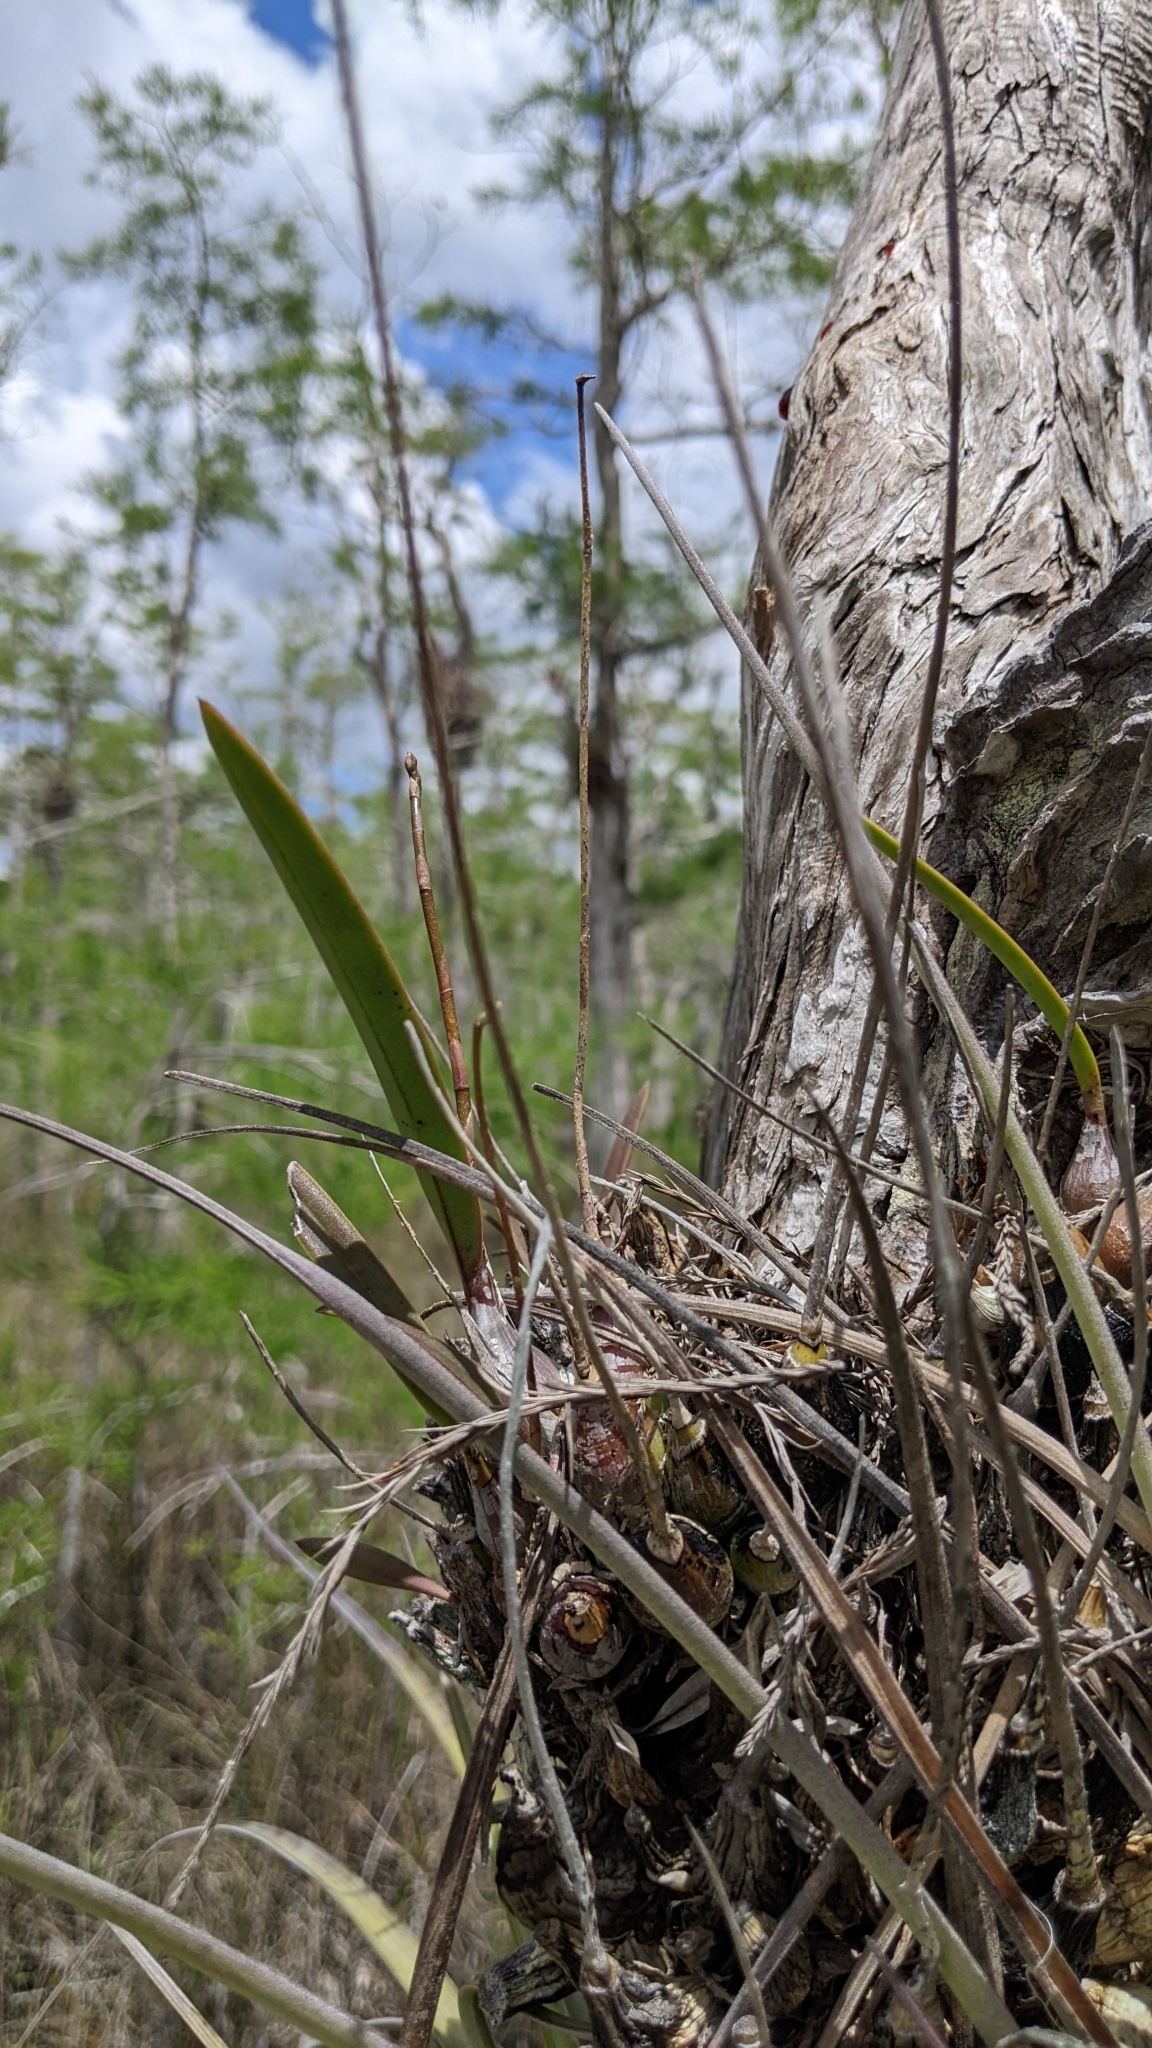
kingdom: Plantae
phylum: Tracheophyta
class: Liliopsida
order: Asparagales
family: Orchidaceae
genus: Encyclia
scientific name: Encyclia tampensis
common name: Florida butterfly orchid
